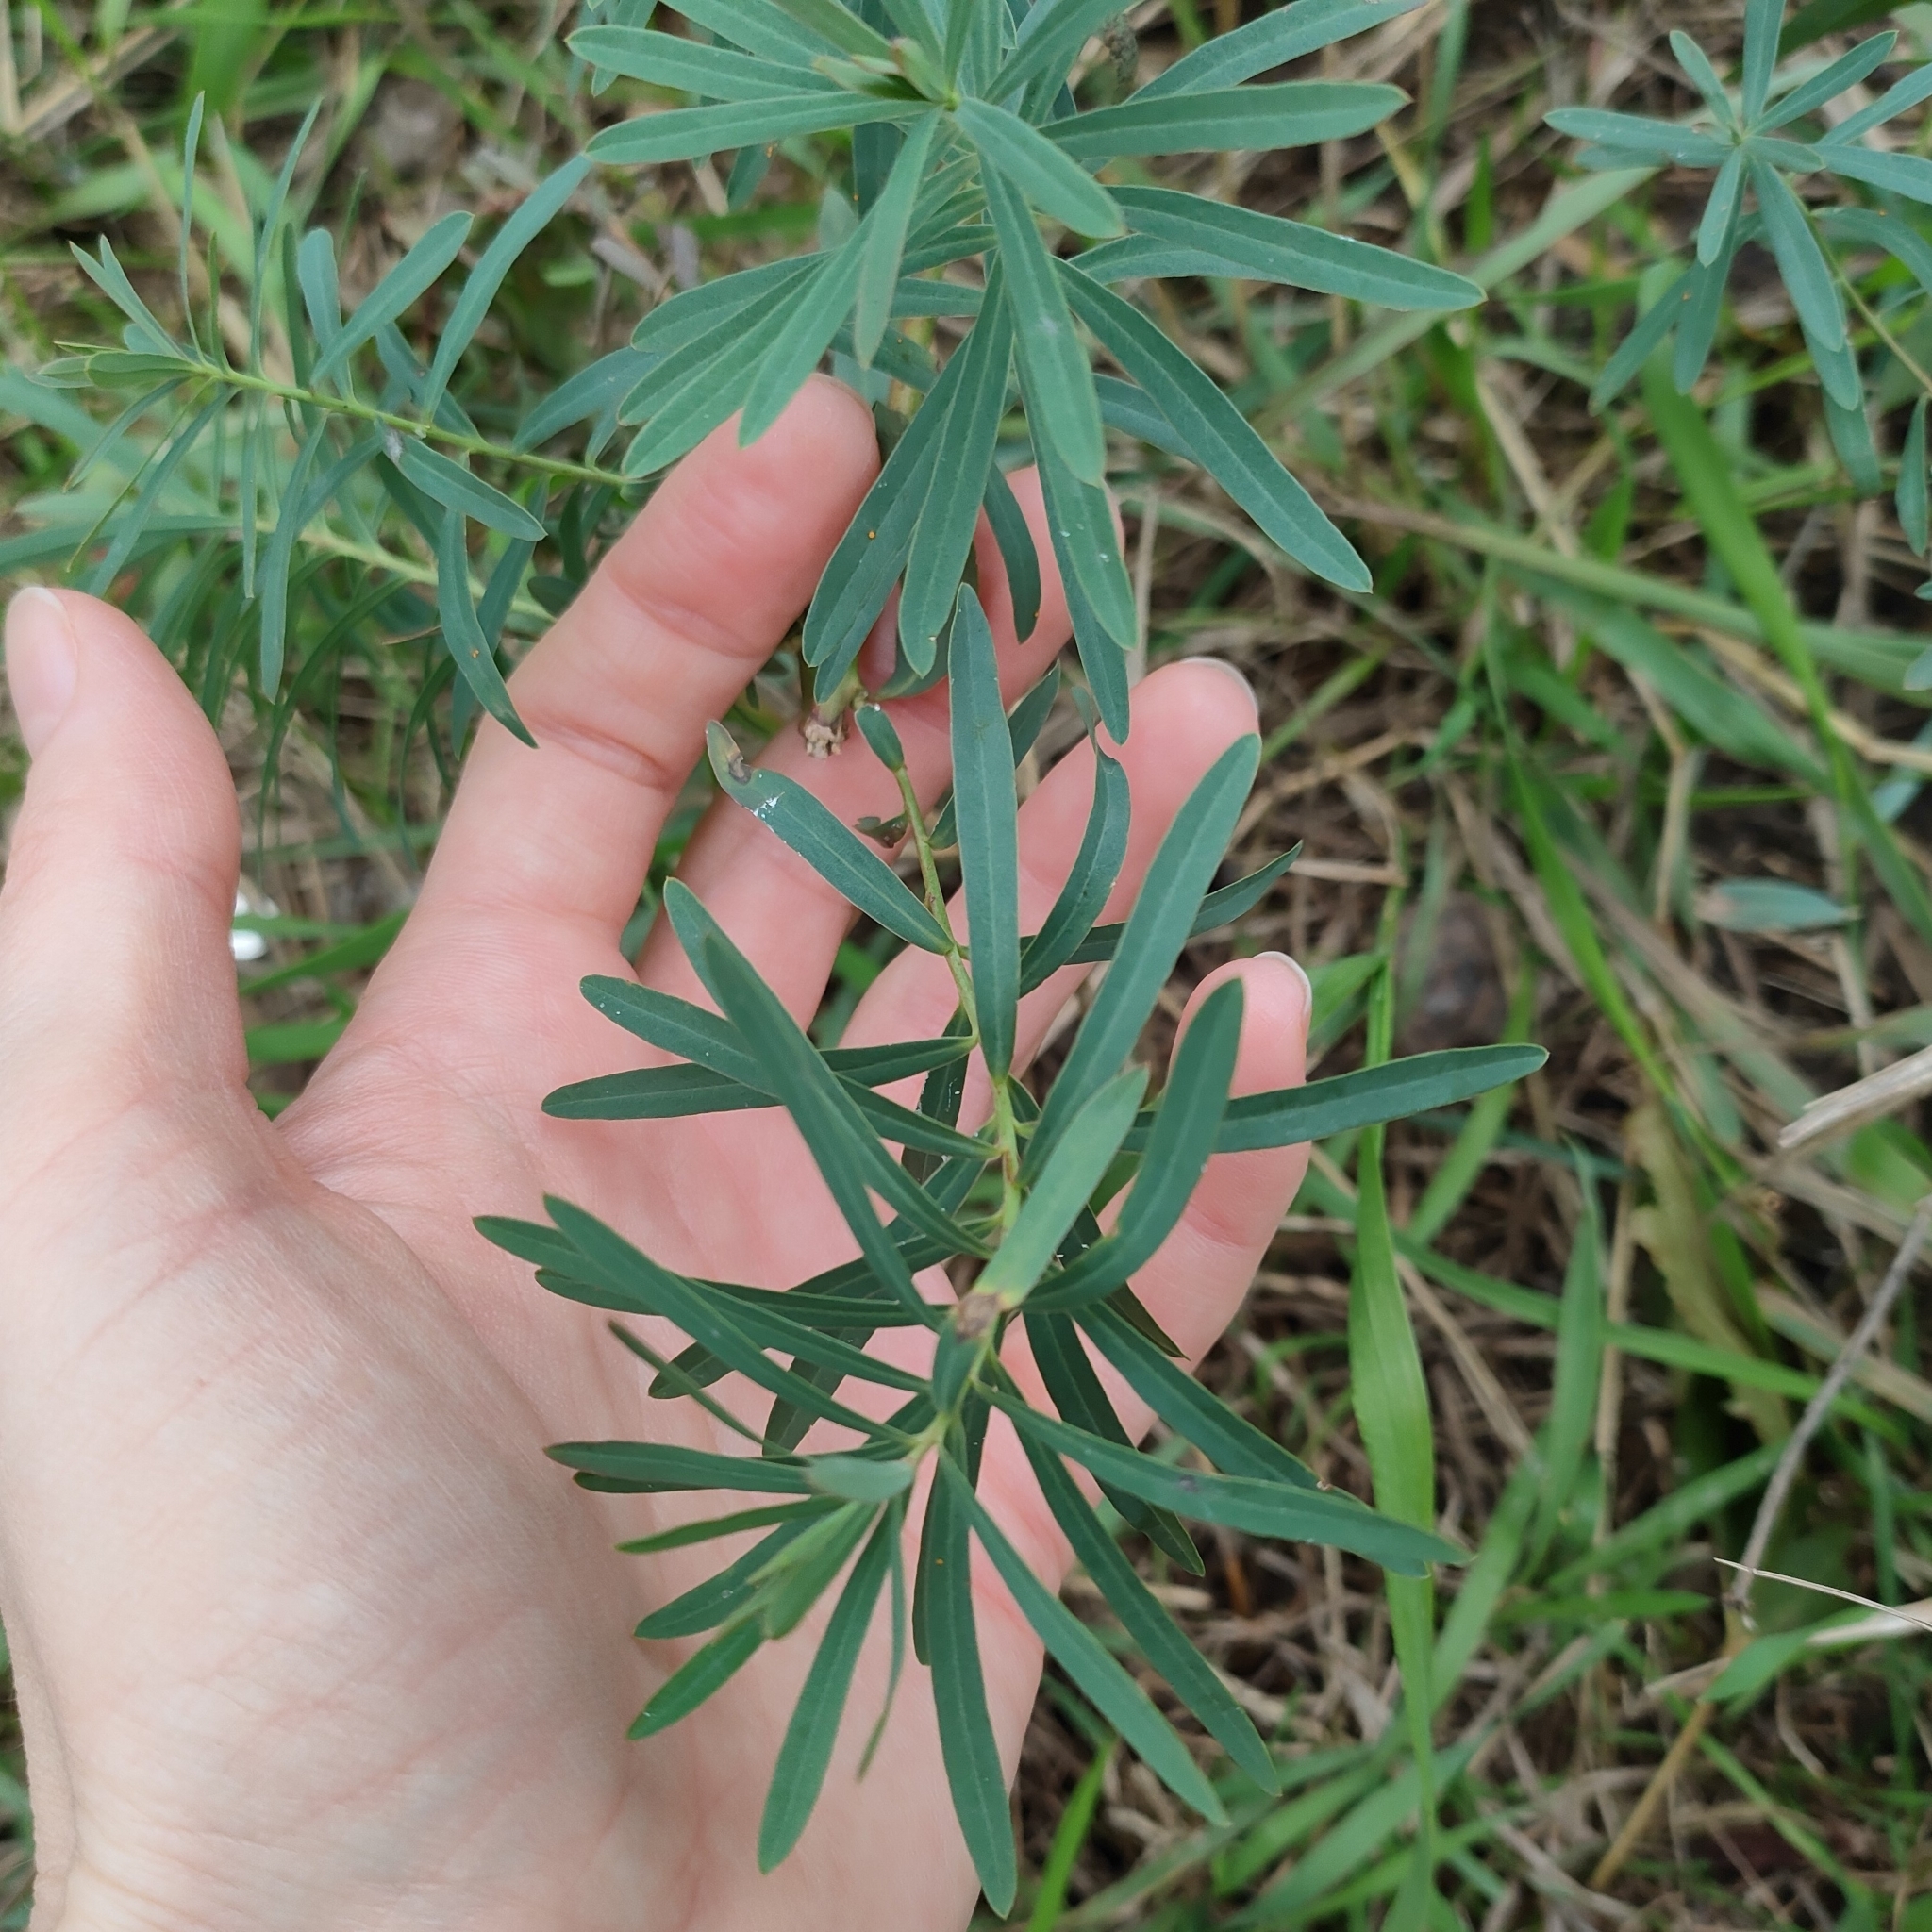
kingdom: Plantae
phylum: Tracheophyta
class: Magnoliopsida
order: Malpighiales
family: Euphorbiaceae
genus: Euphorbia
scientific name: Euphorbia virgata
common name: Leafy spurge
